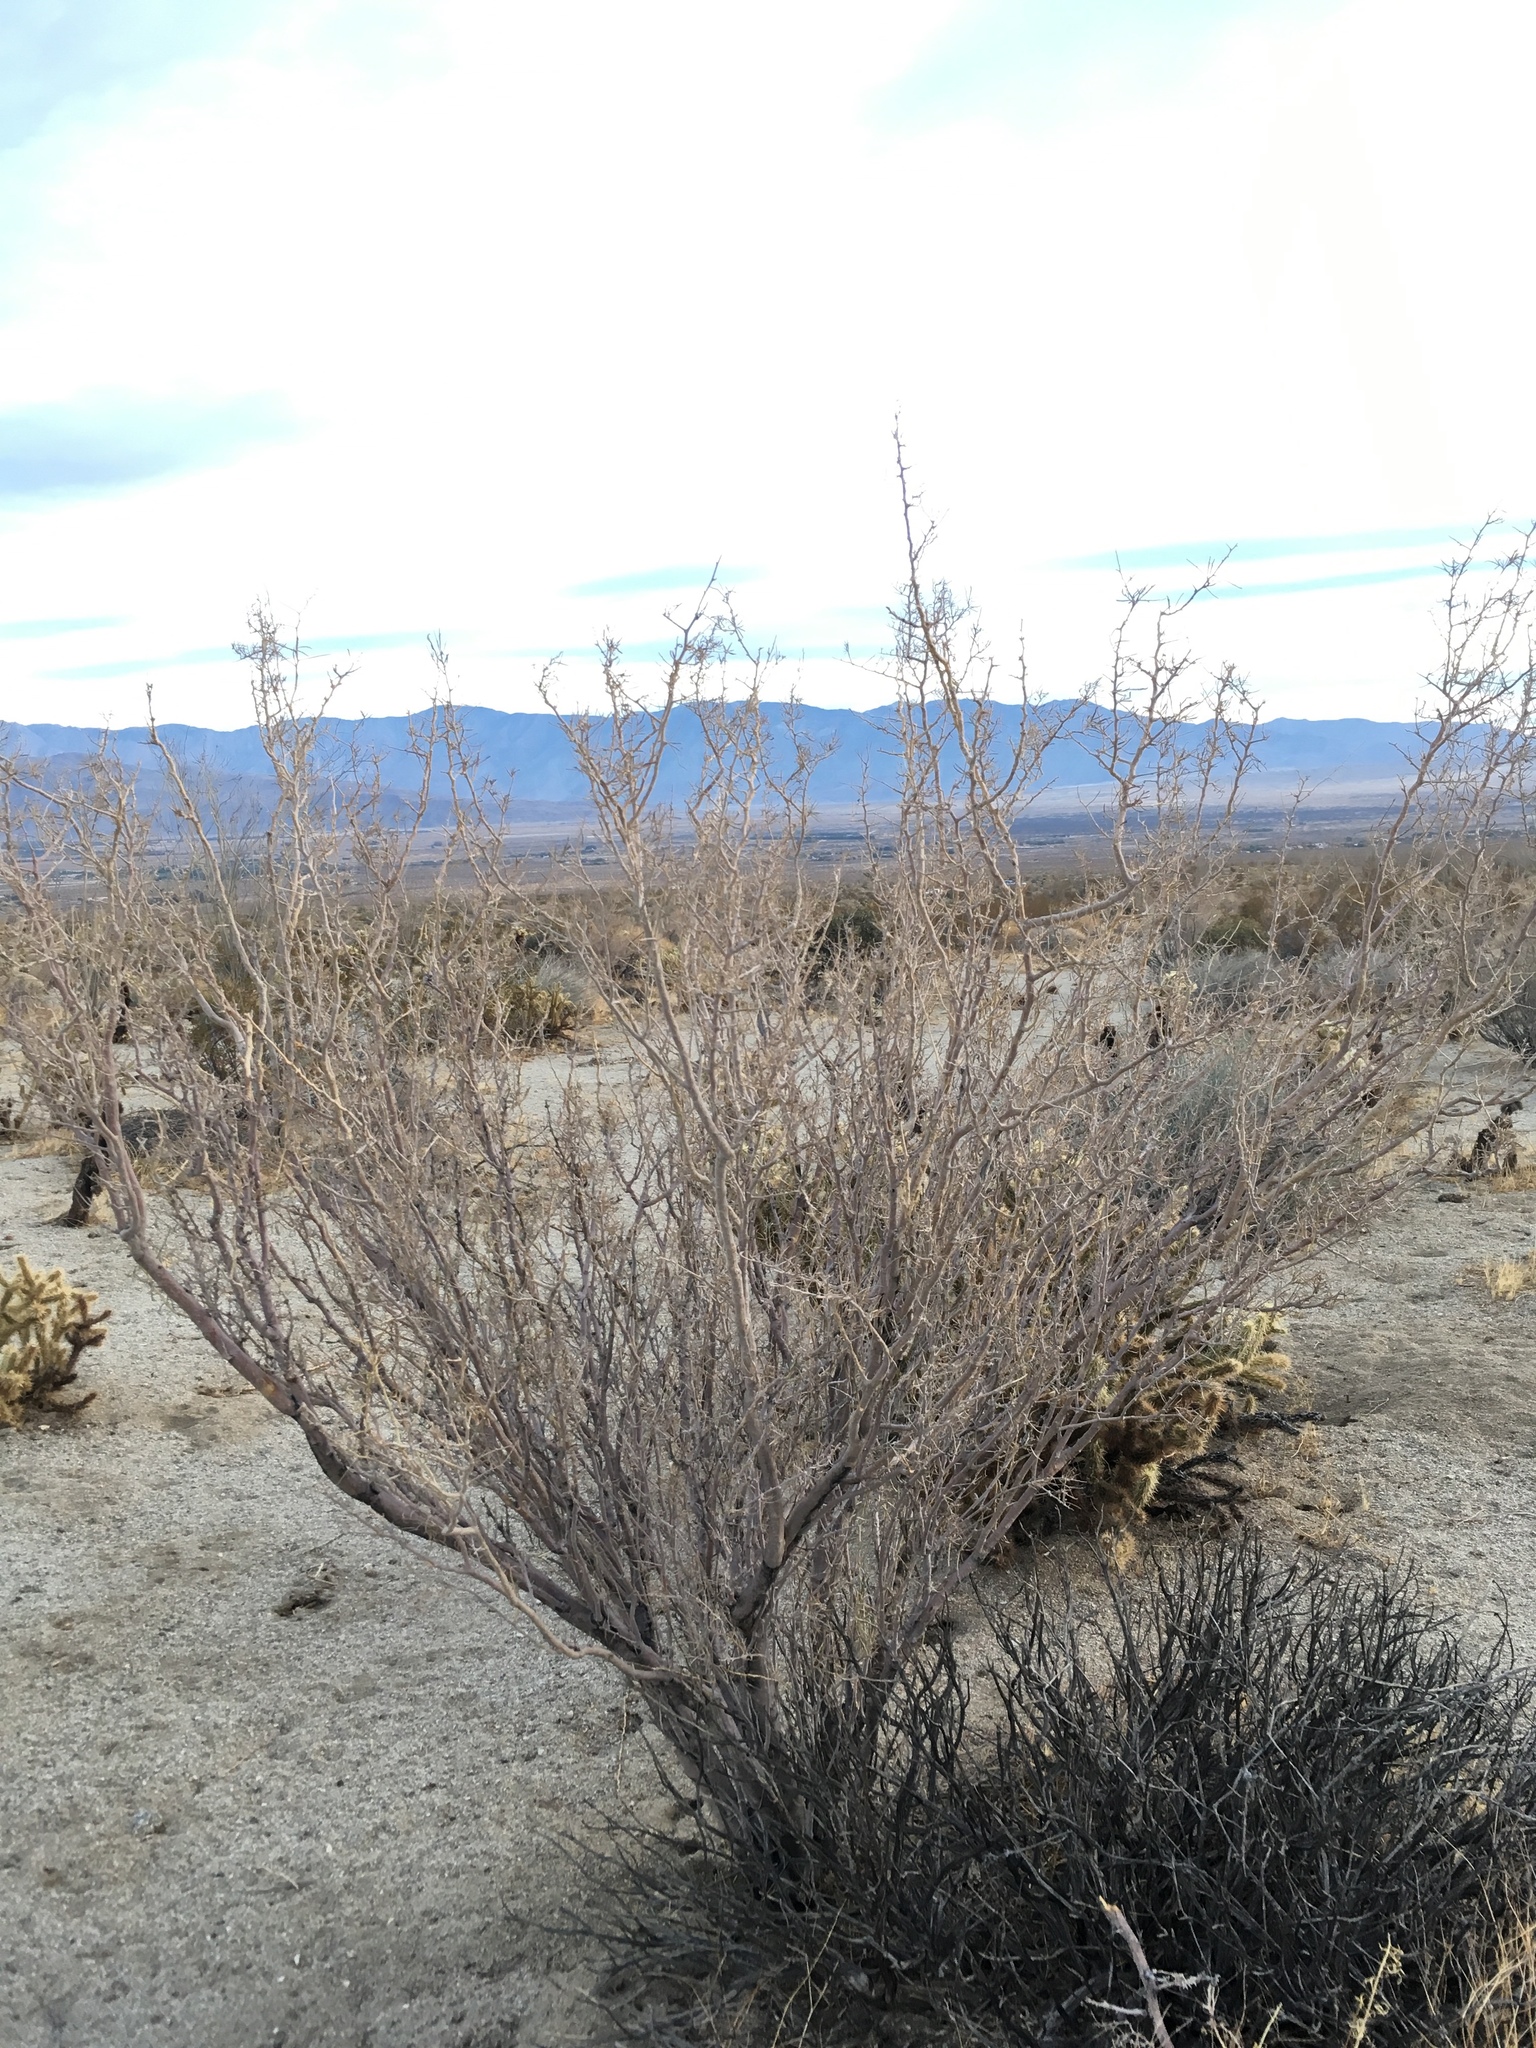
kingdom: Plantae
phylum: Tracheophyta
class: Magnoliopsida
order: Fabales
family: Fabaceae
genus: Psorothamnus
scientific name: Psorothamnus schottii
